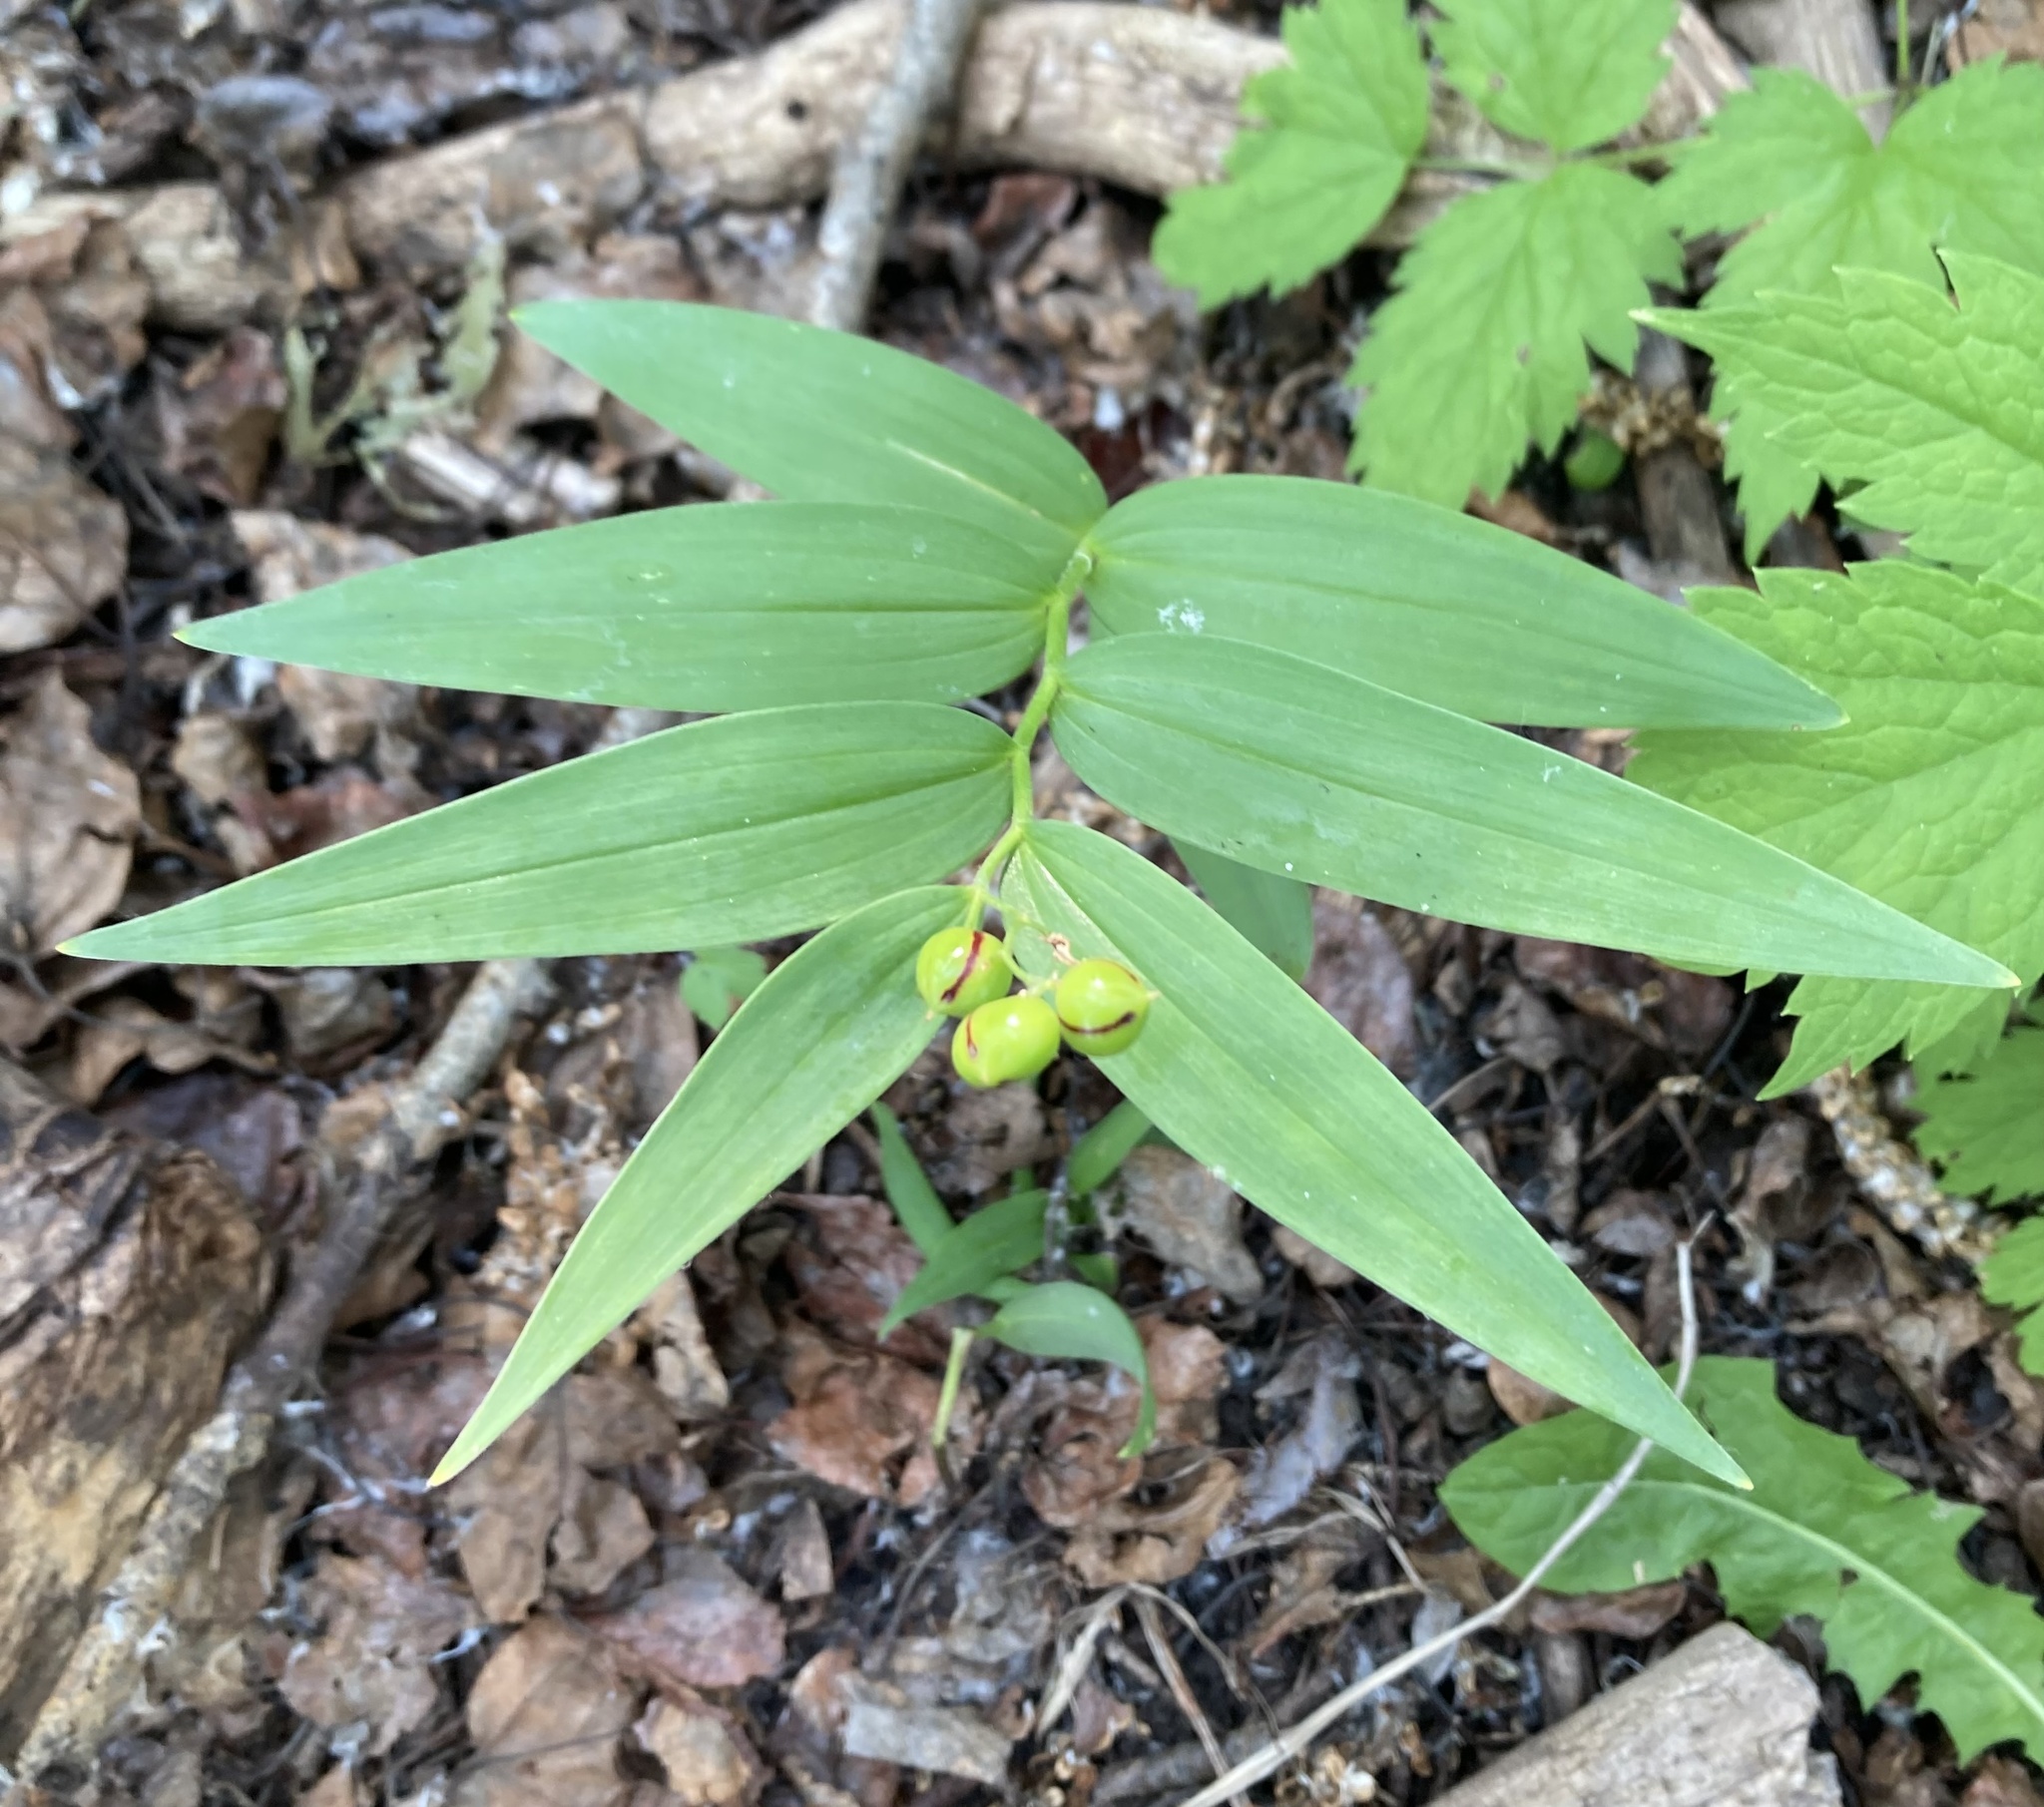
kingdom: Plantae
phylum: Tracheophyta
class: Liliopsida
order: Asparagales
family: Asparagaceae
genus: Maianthemum
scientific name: Maianthemum stellatum
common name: Little false solomon's seal
